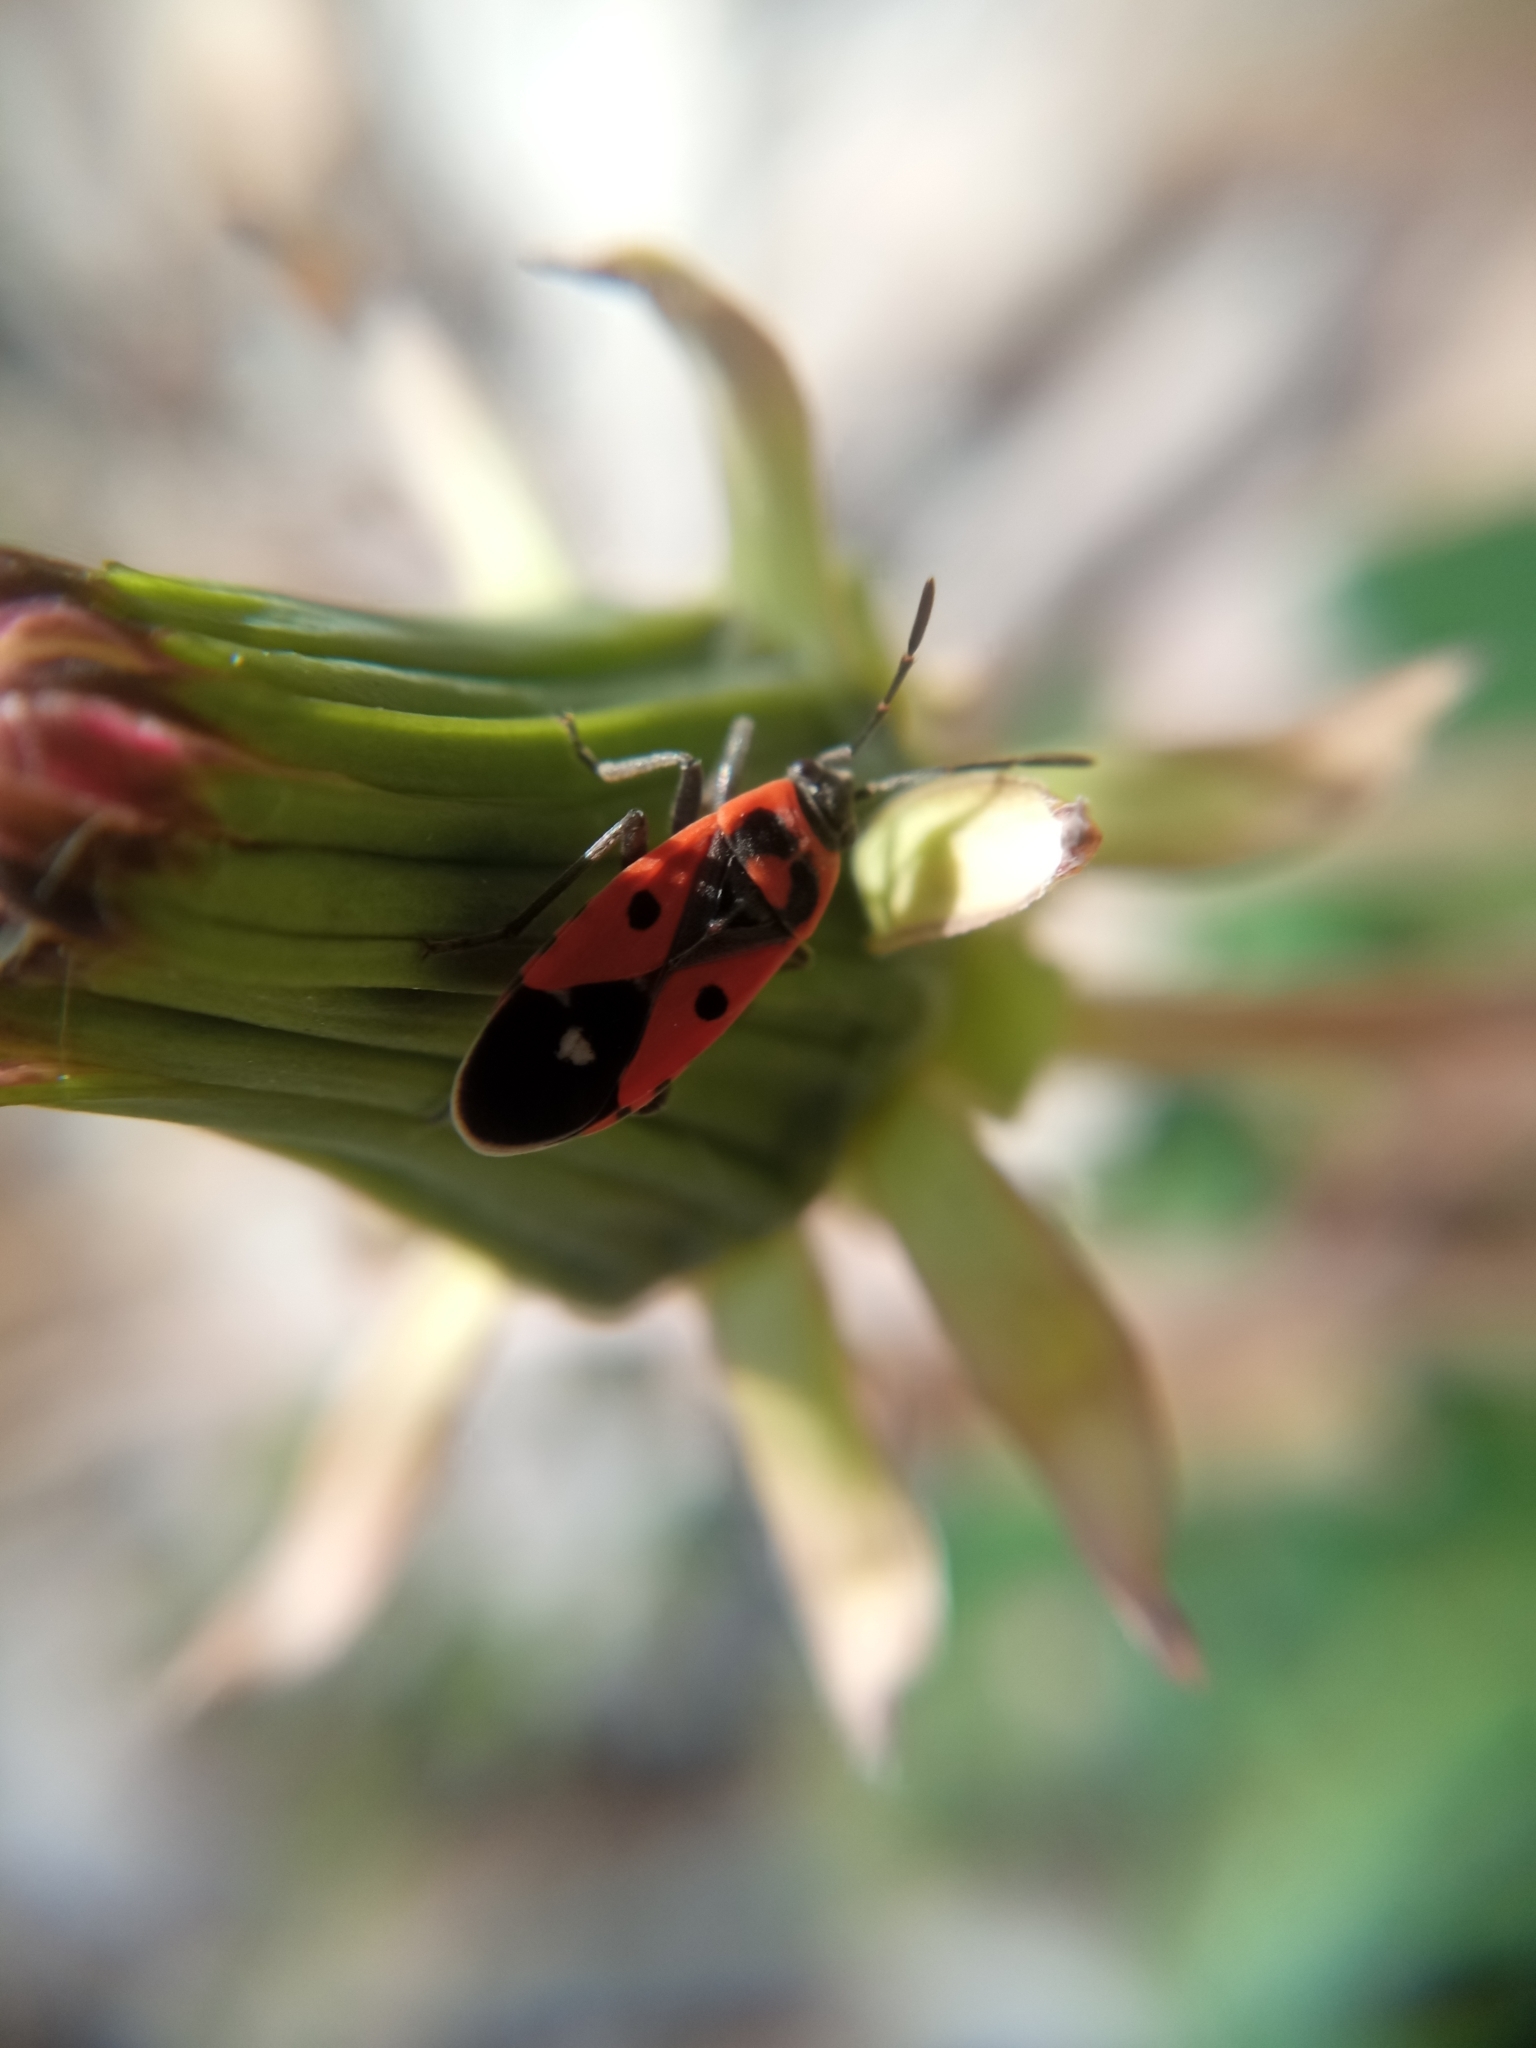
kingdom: Animalia
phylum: Arthropoda
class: Insecta
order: Hemiptera
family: Lygaeidae
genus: Melanocoryphus
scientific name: Melanocoryphus albomaculatus
